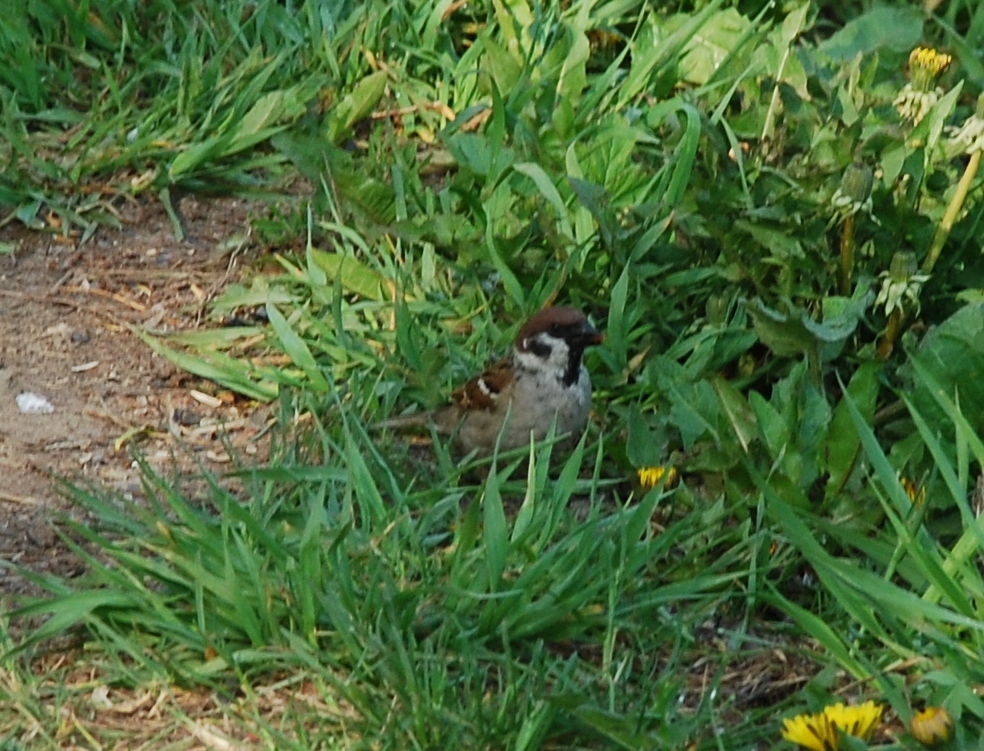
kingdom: Animalia
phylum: Chordata
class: Aves
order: Passeriformes
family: Passeridae
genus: Passer
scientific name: Passer montanus
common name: Eurasian tree sparrow
